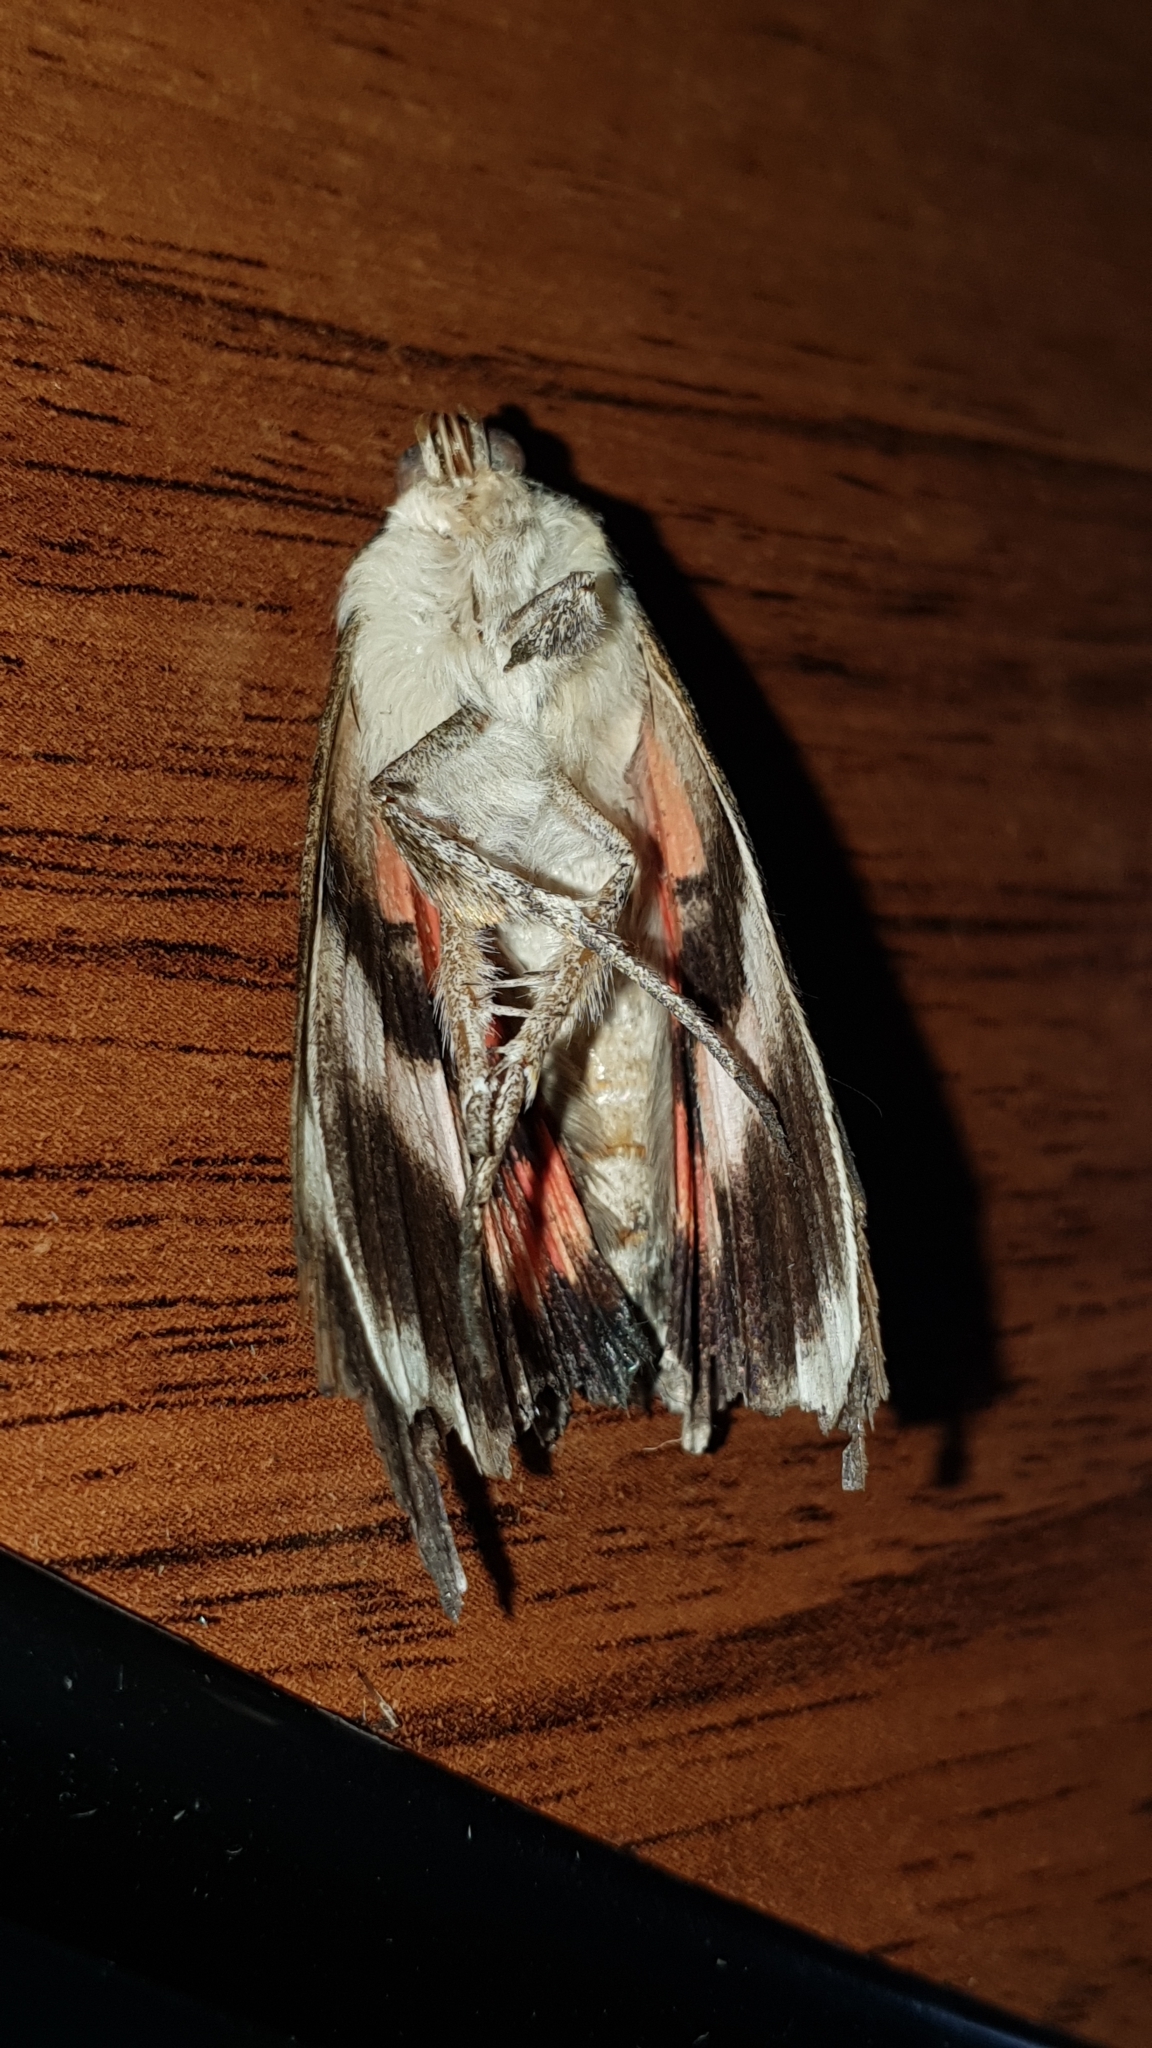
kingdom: Animalia
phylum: Arthropoda
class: Insecta
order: Lepidoptera
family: Erebidae
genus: Catocala
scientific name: Catocala nupta
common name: Red underwing
